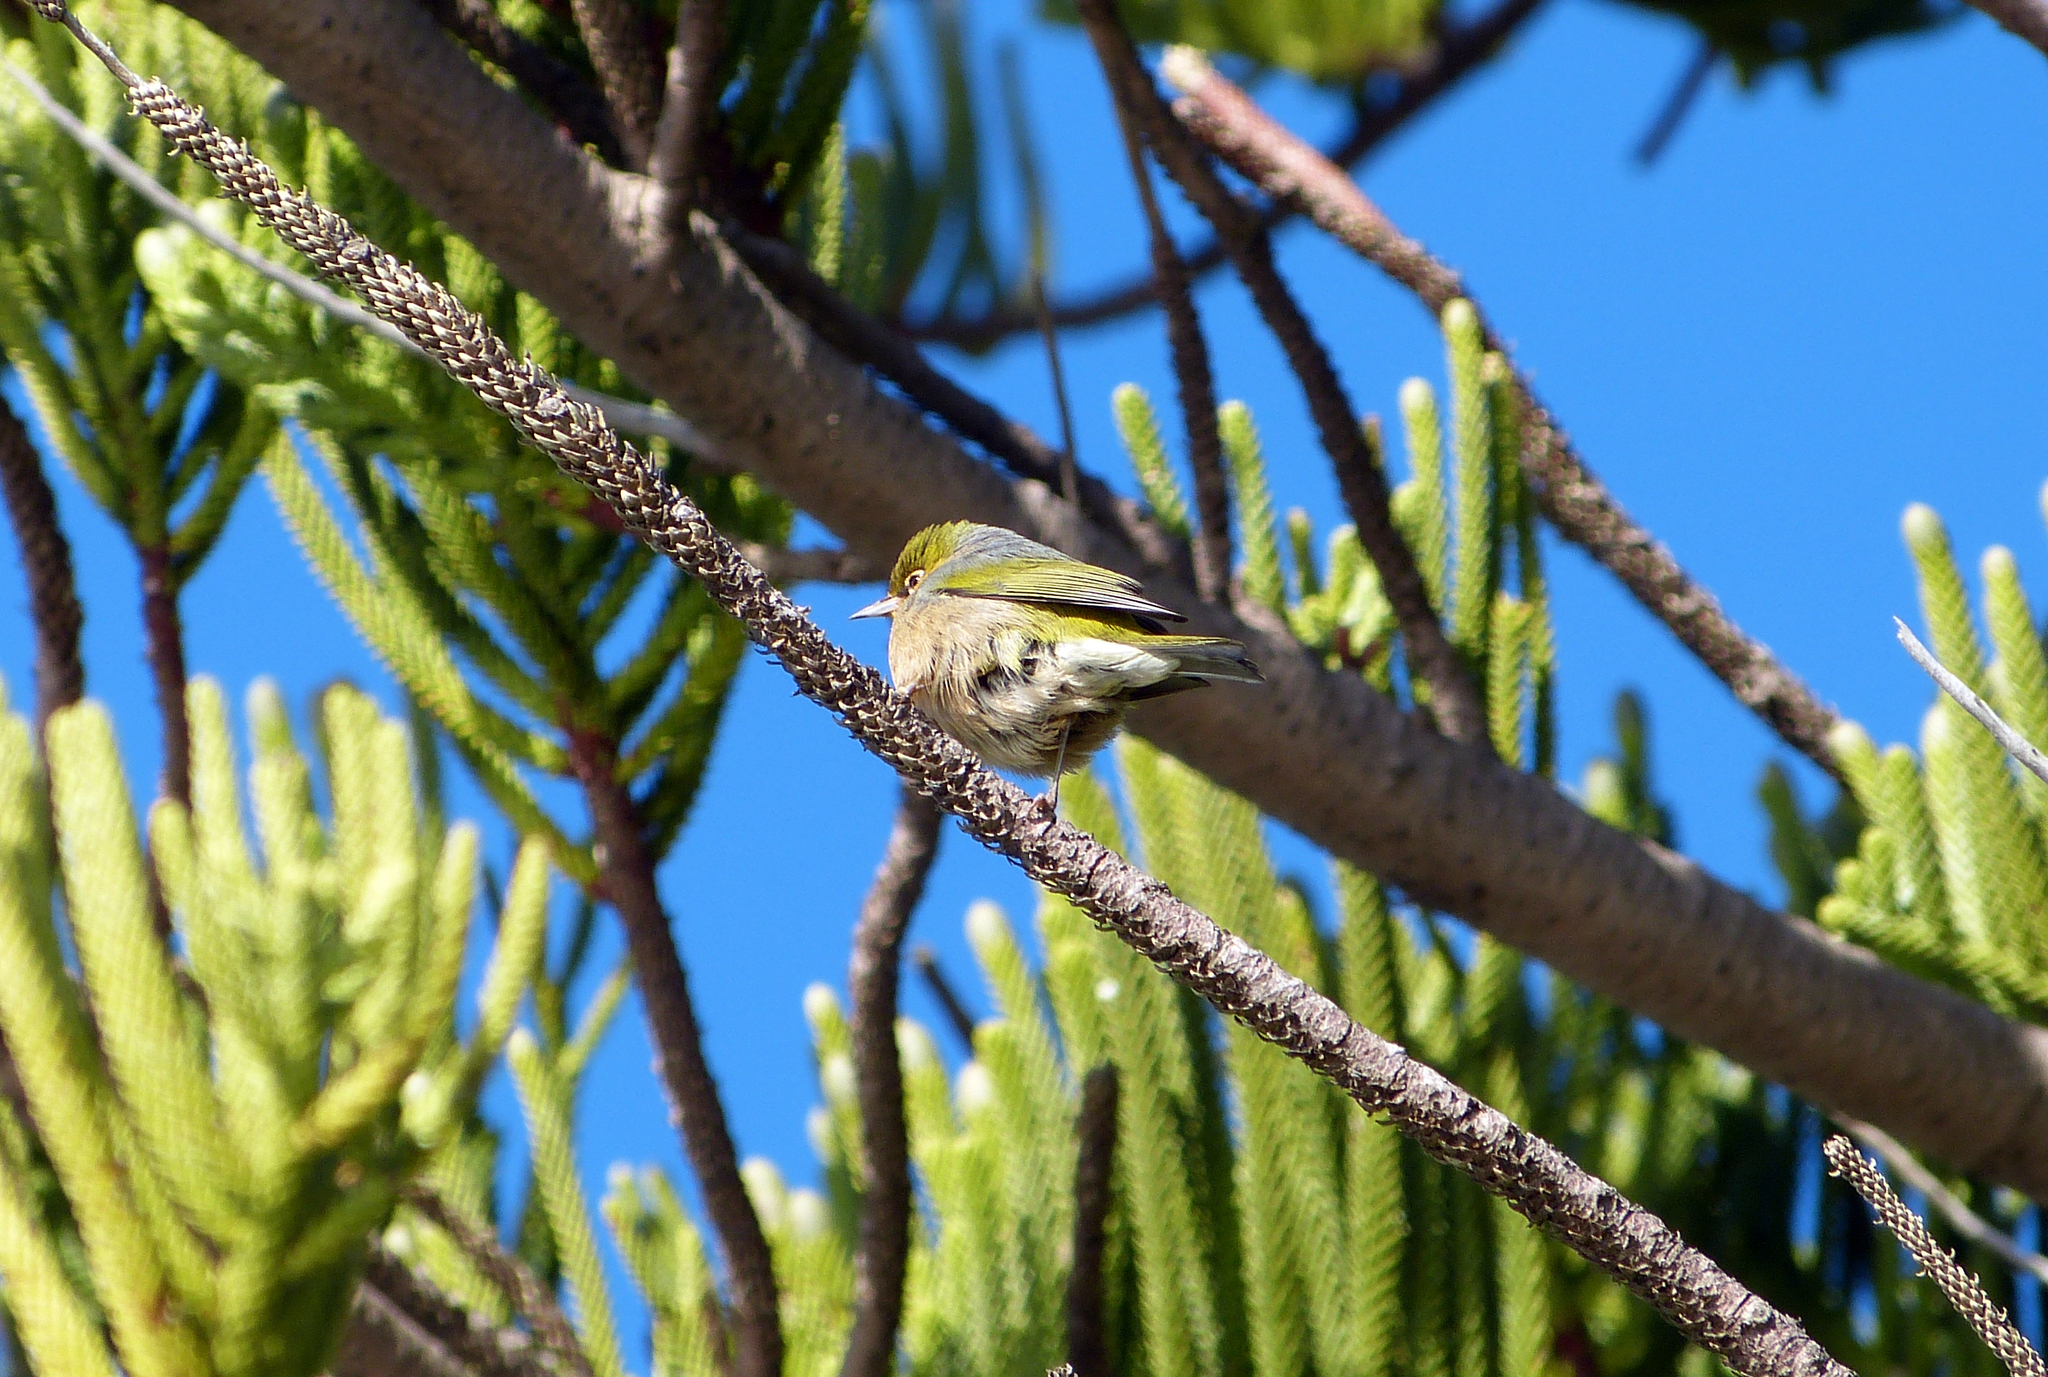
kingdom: Animalia
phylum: Chordata
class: Aves
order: Passeriformes
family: Zosteropidae
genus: Zosterops
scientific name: Zosterops lateralis
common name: Silvereye
